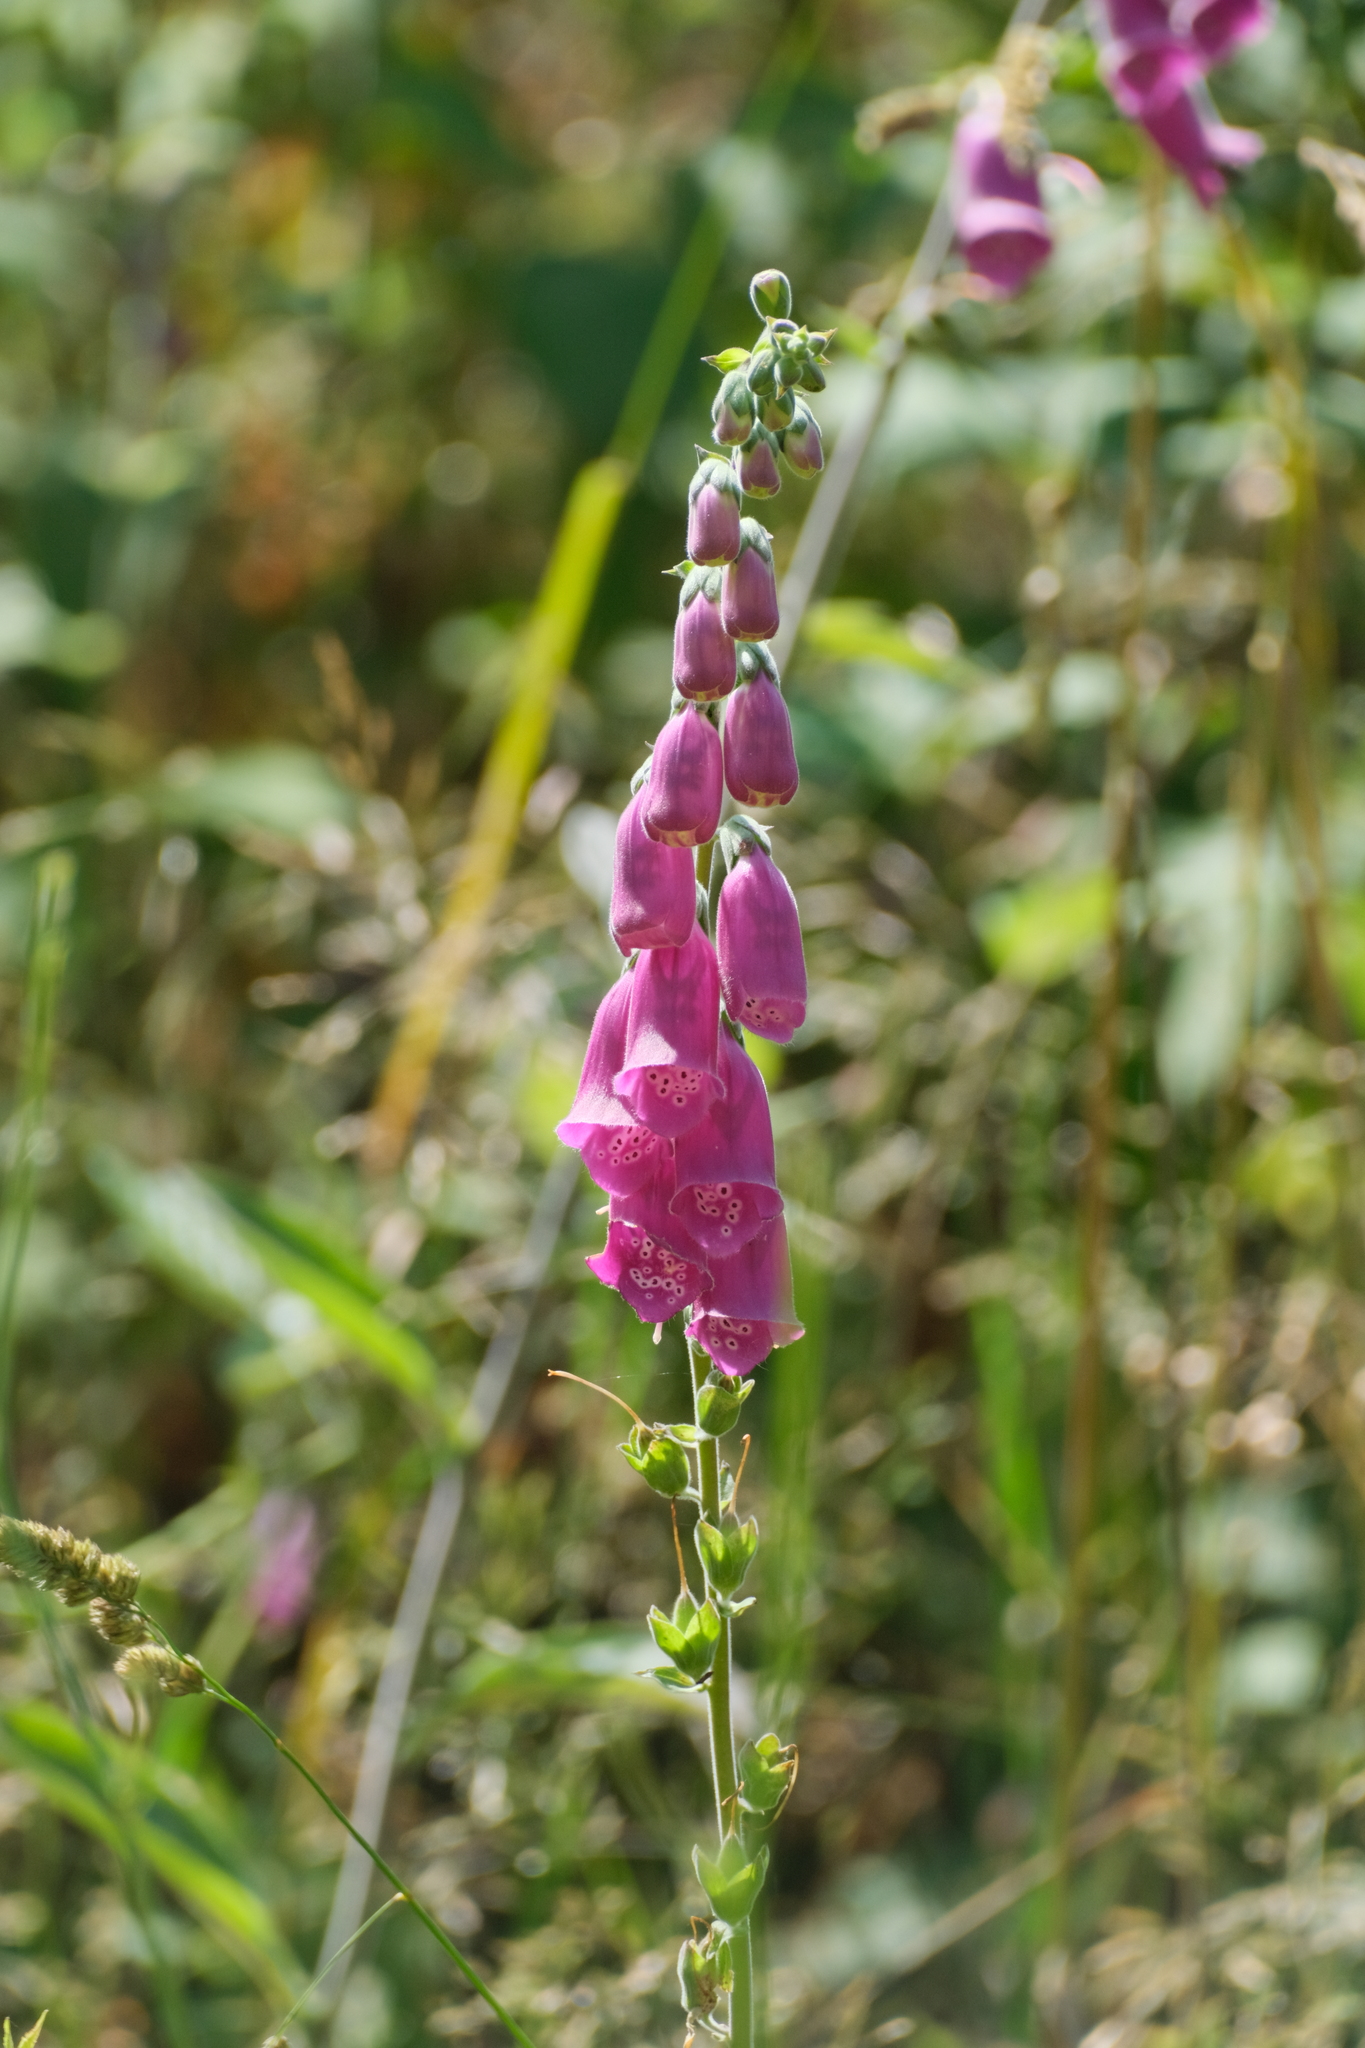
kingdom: Plantae
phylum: Tracheophyta
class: Magnoliopsida
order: Lamiales
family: Plantaginaceae
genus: Digitalis
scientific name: Digitalis purpurea
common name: Foxglove
